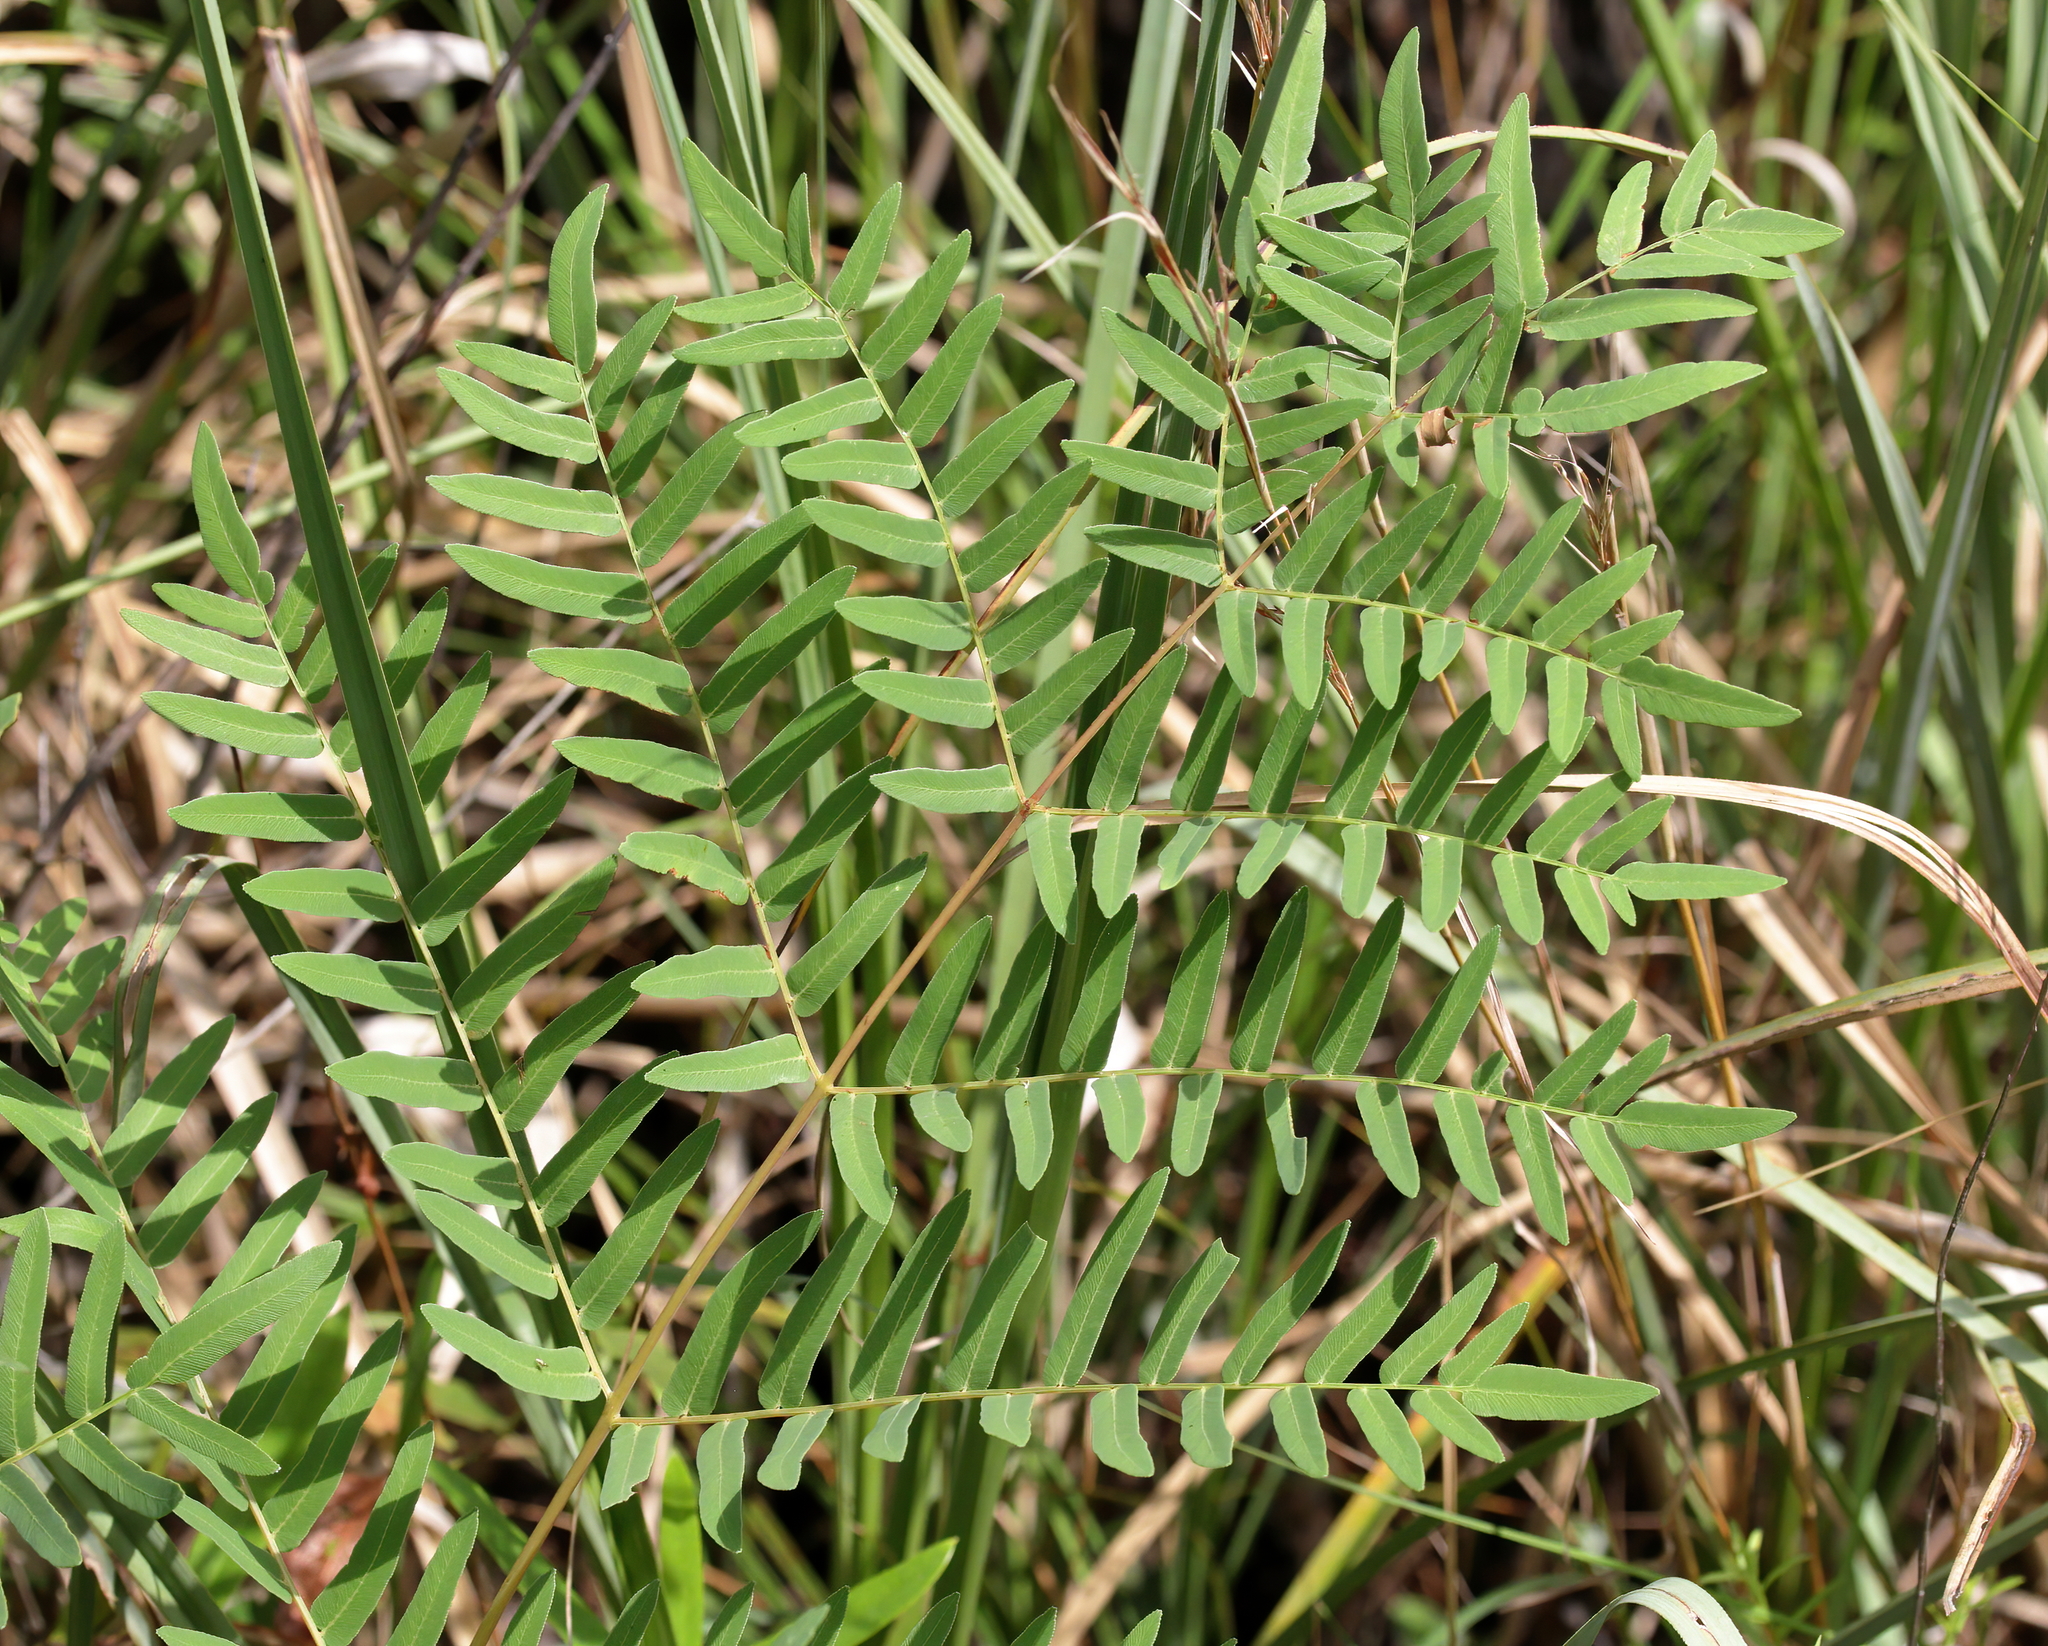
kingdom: Plantae
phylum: Tracheophyta
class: Polypodiopsida
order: Osmundales
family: Osmundaceae
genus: Osmunda
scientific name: Osmunda spectabilis
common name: American royal fern
